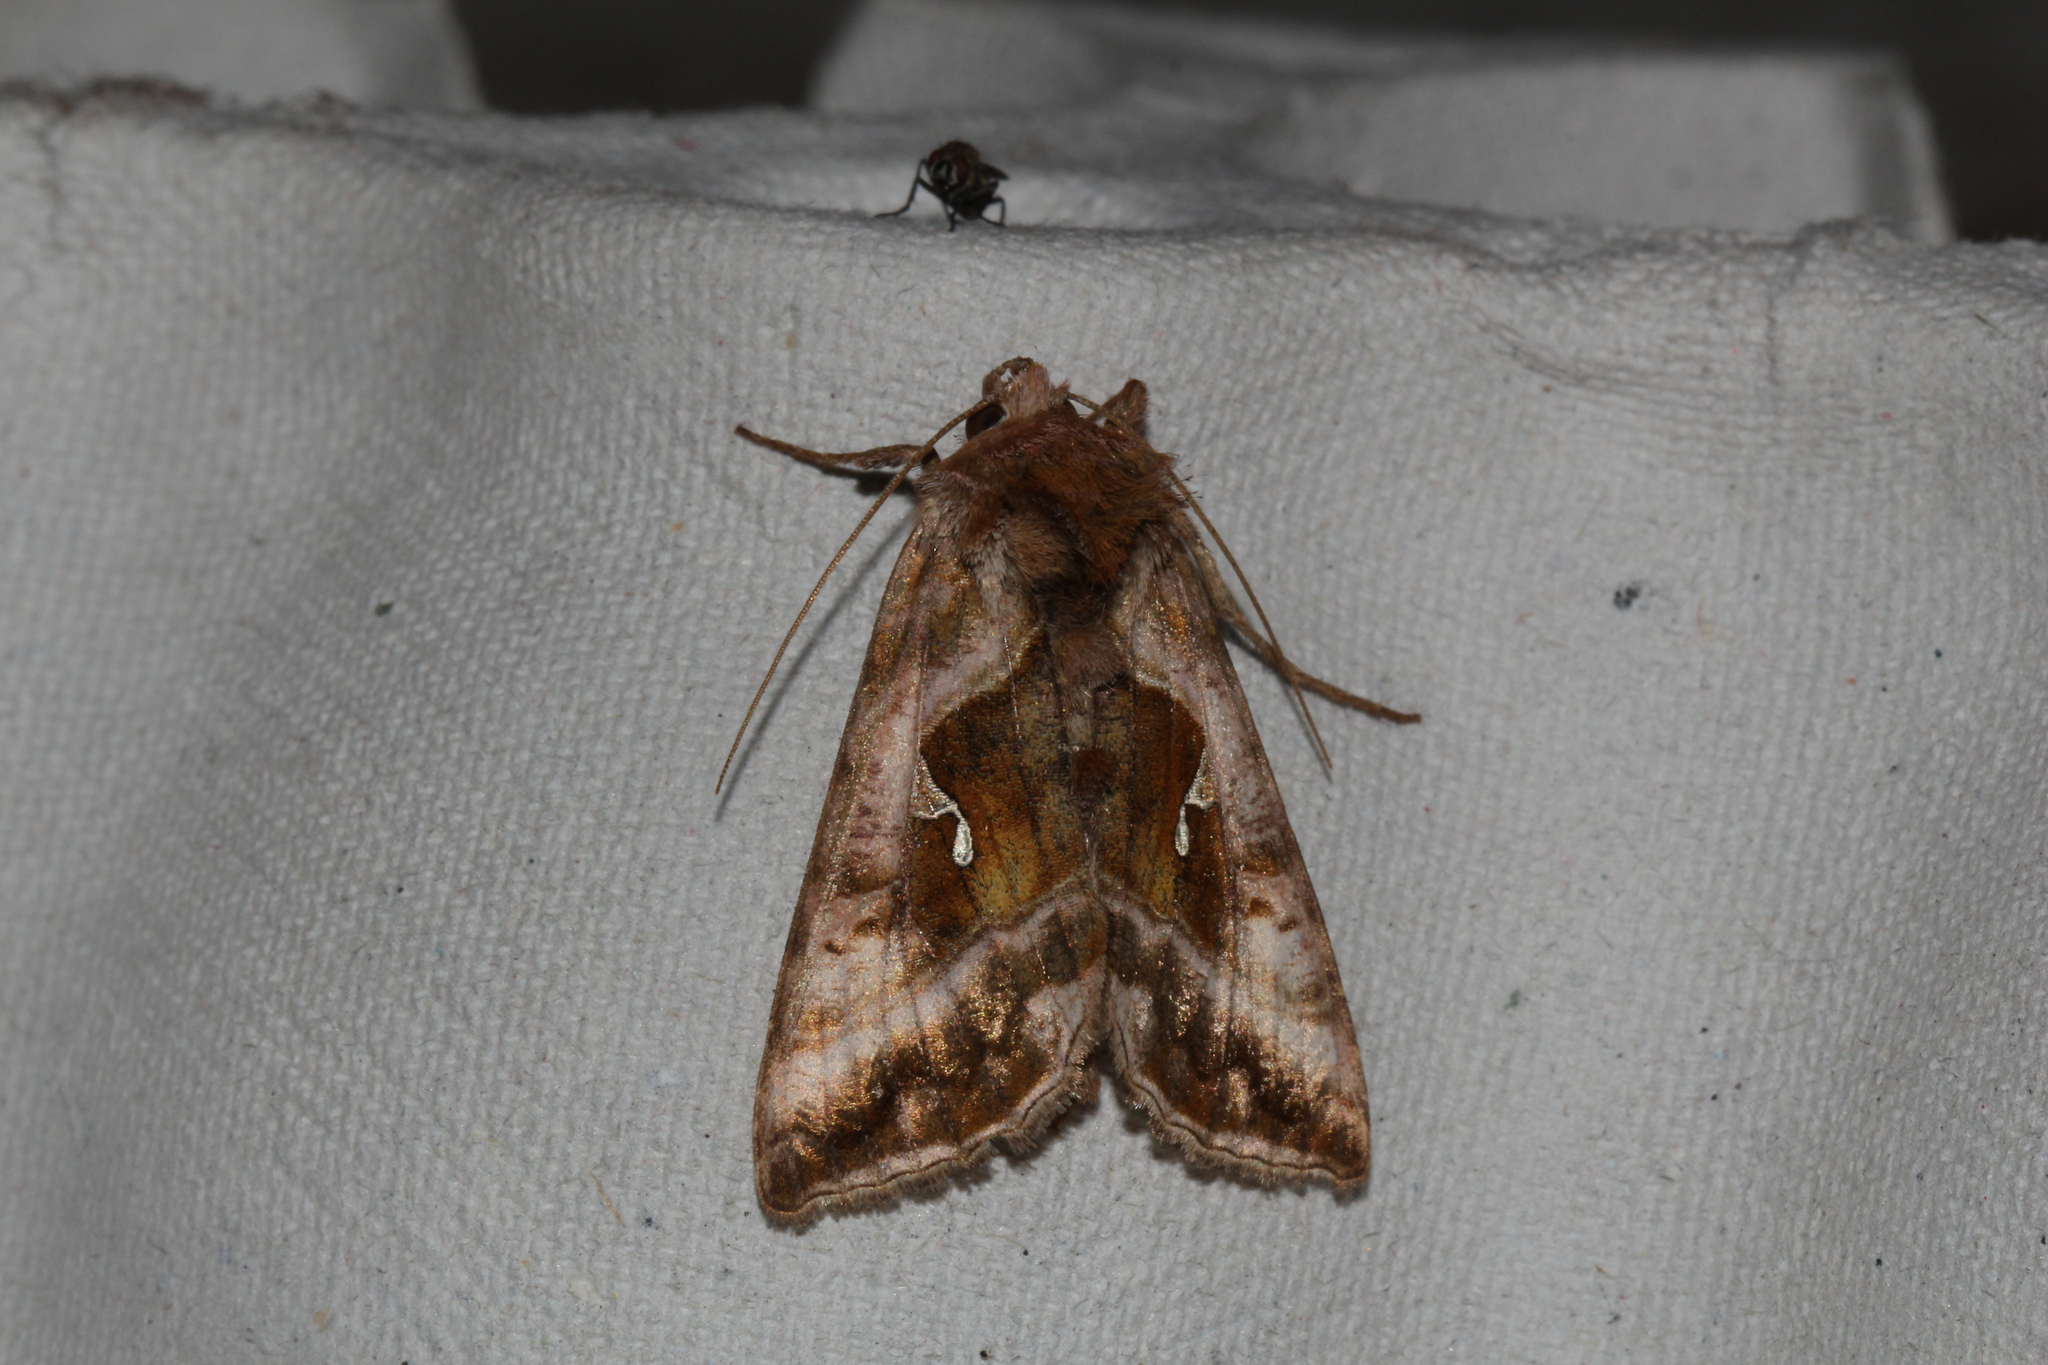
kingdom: Animalia
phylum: Arthropoda
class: Insecta
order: Lepidoptera
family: Noctuidae
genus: Autographa
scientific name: Autographa jota
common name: Plain golden y
